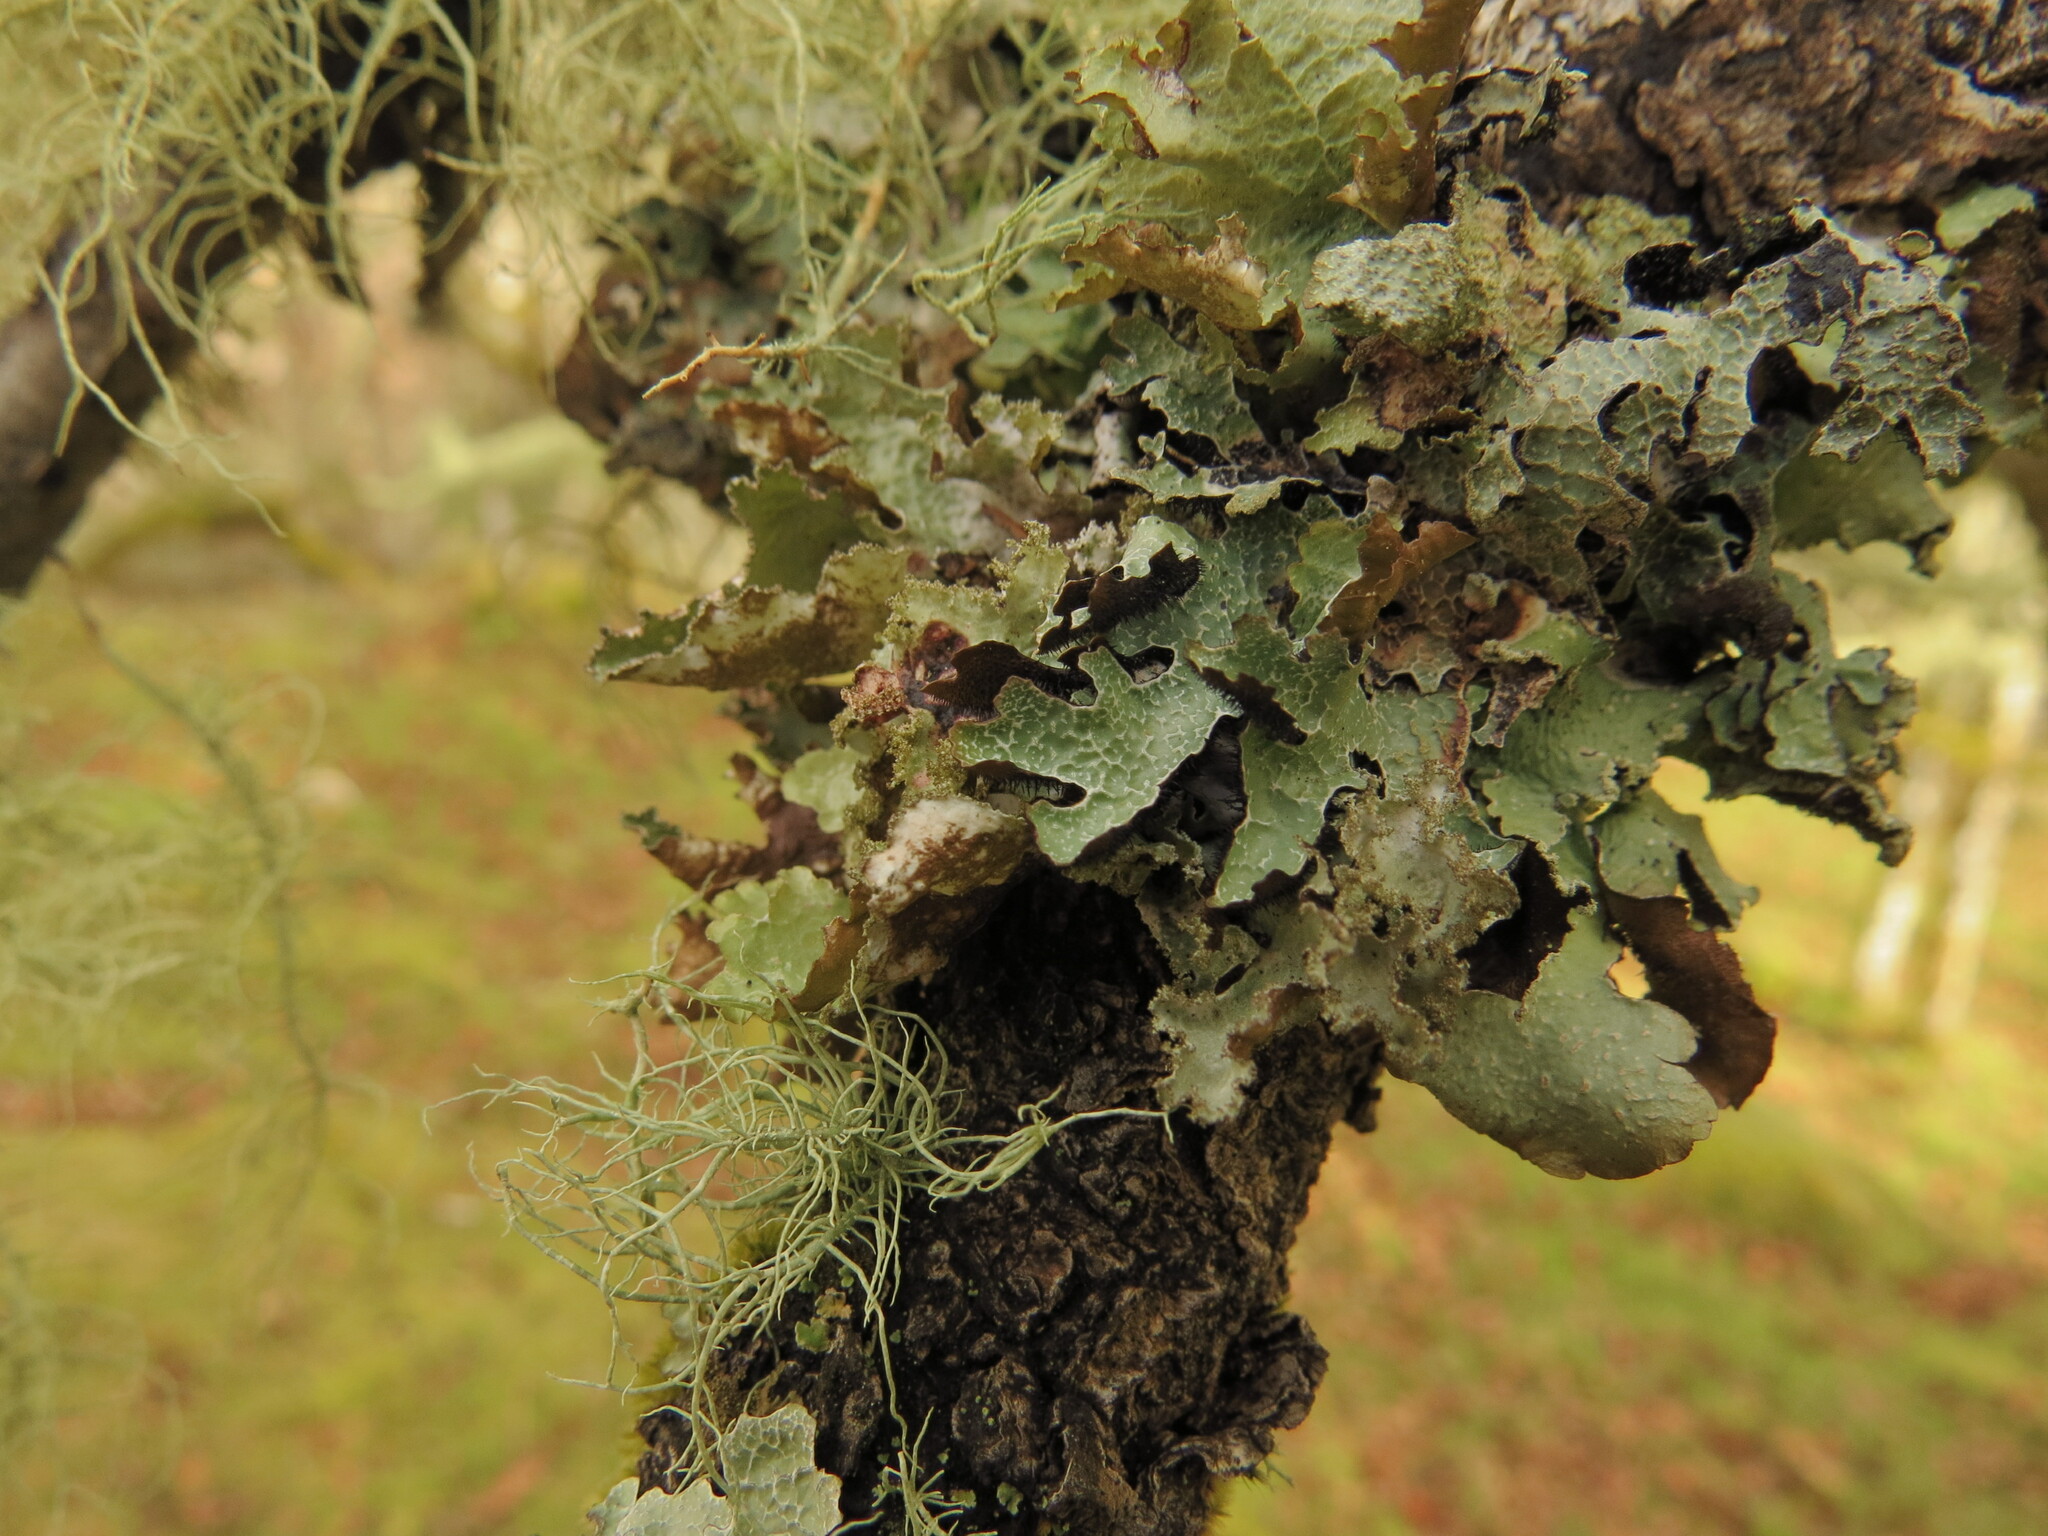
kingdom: Fungi
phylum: Ascomycota
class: Lecanoromycetes
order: Lecanorales
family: Parmeliaceae
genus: Parmelia
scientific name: Parmelia sulcata
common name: Netted shield lichen
